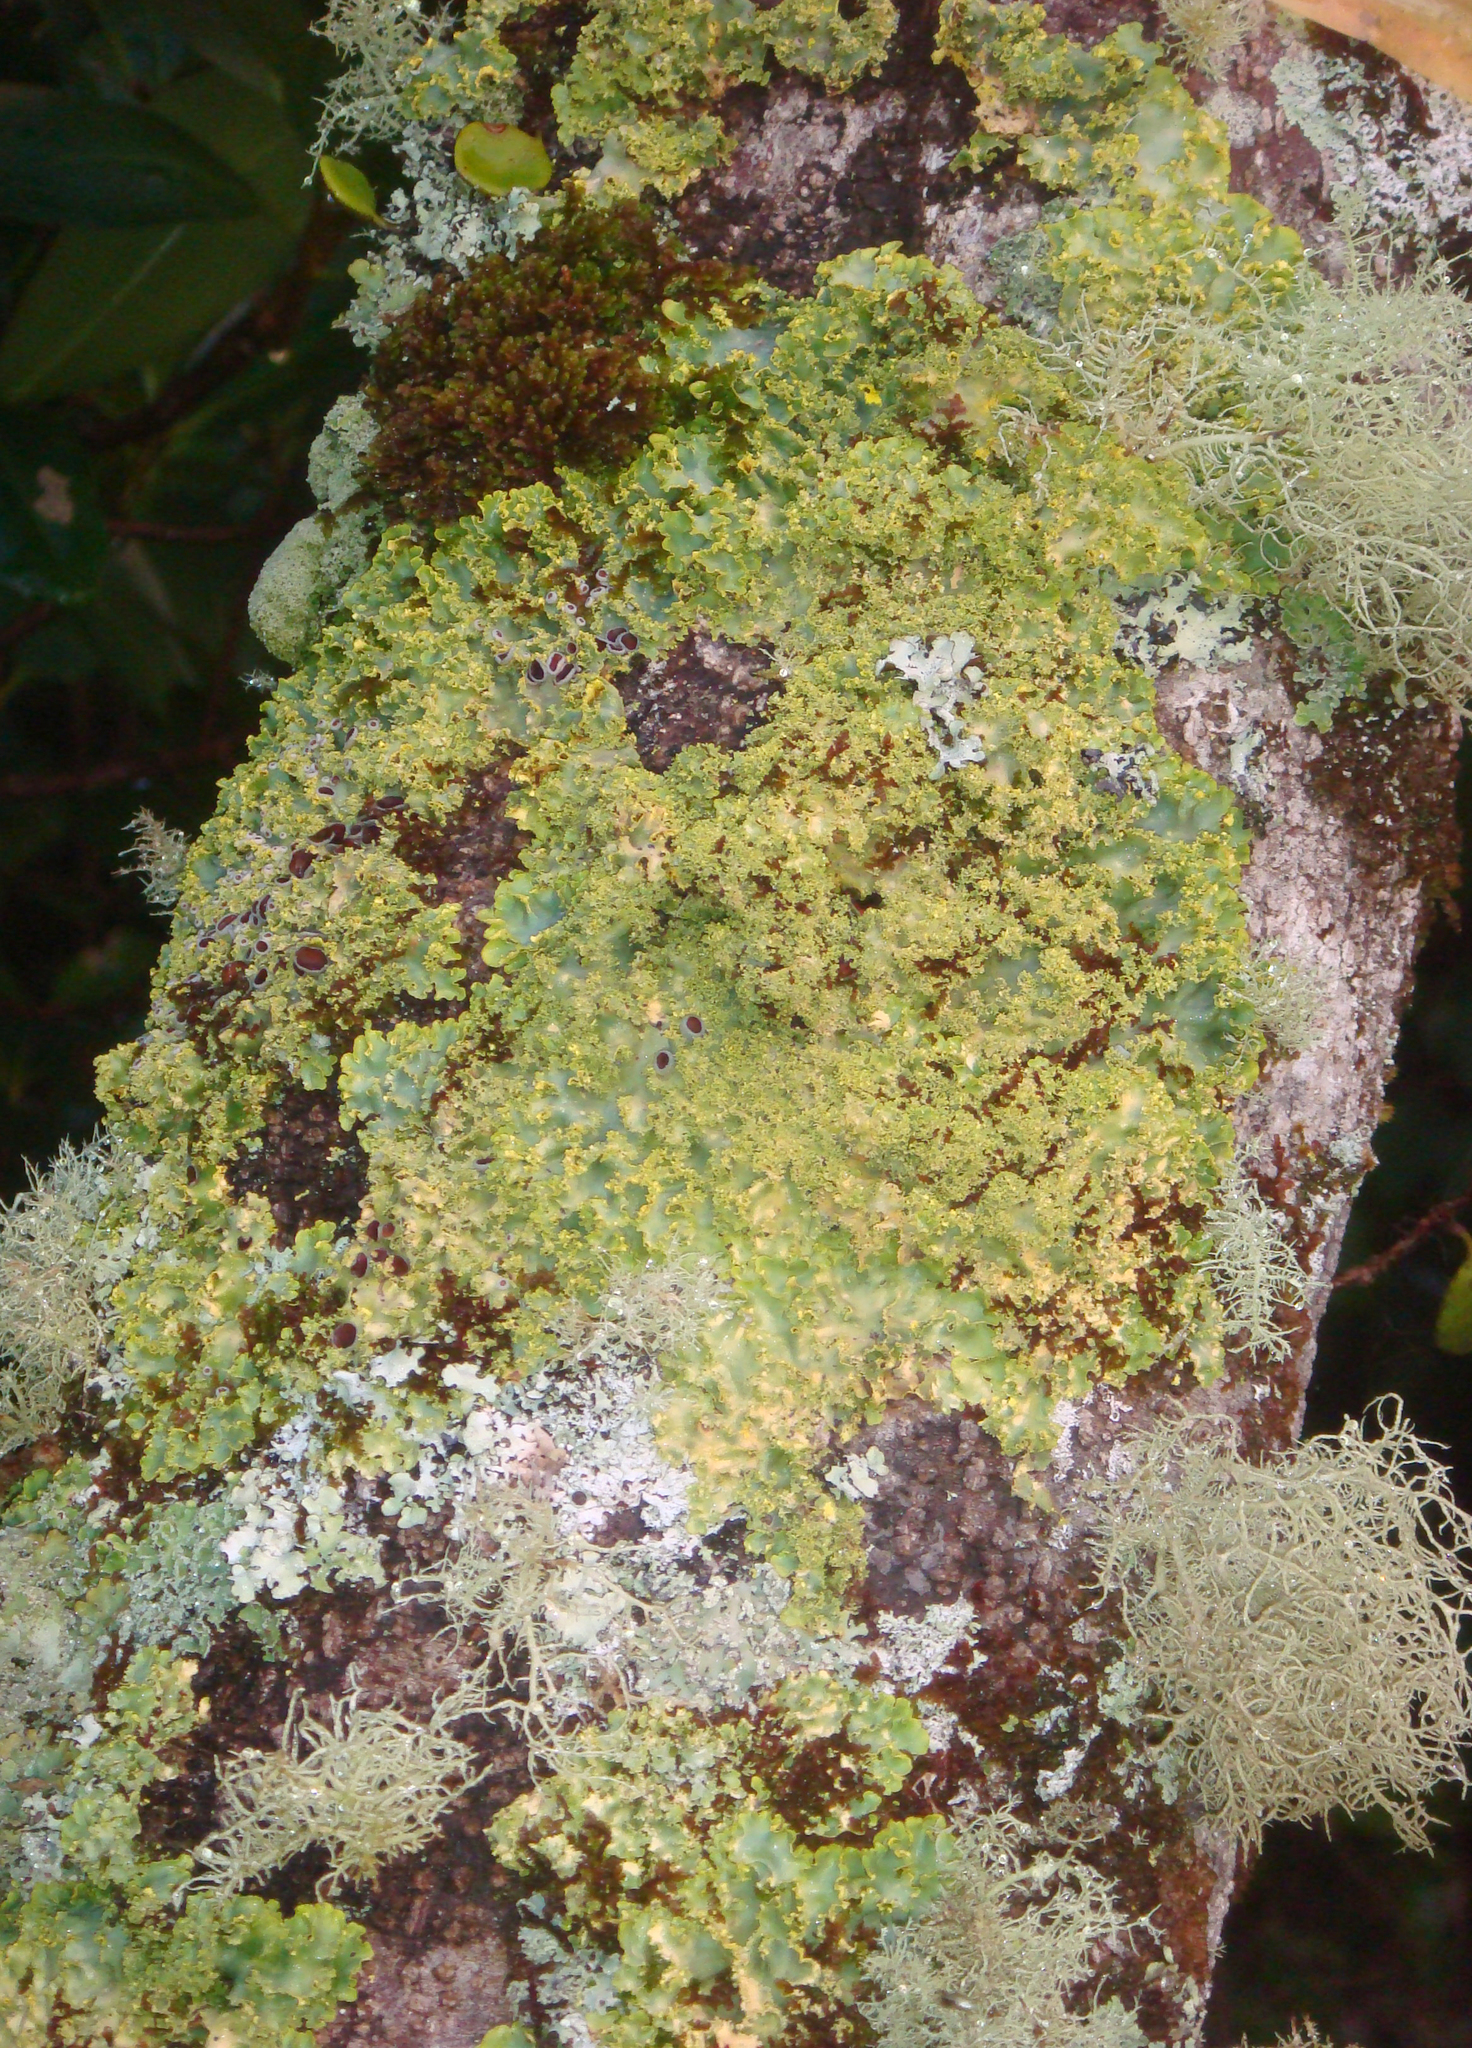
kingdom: Fungi
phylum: Ascomycota
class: Lecanoromycetes
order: Peltigerales
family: Lobariaceae
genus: Podostictina
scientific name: Podostictina pickeringii
